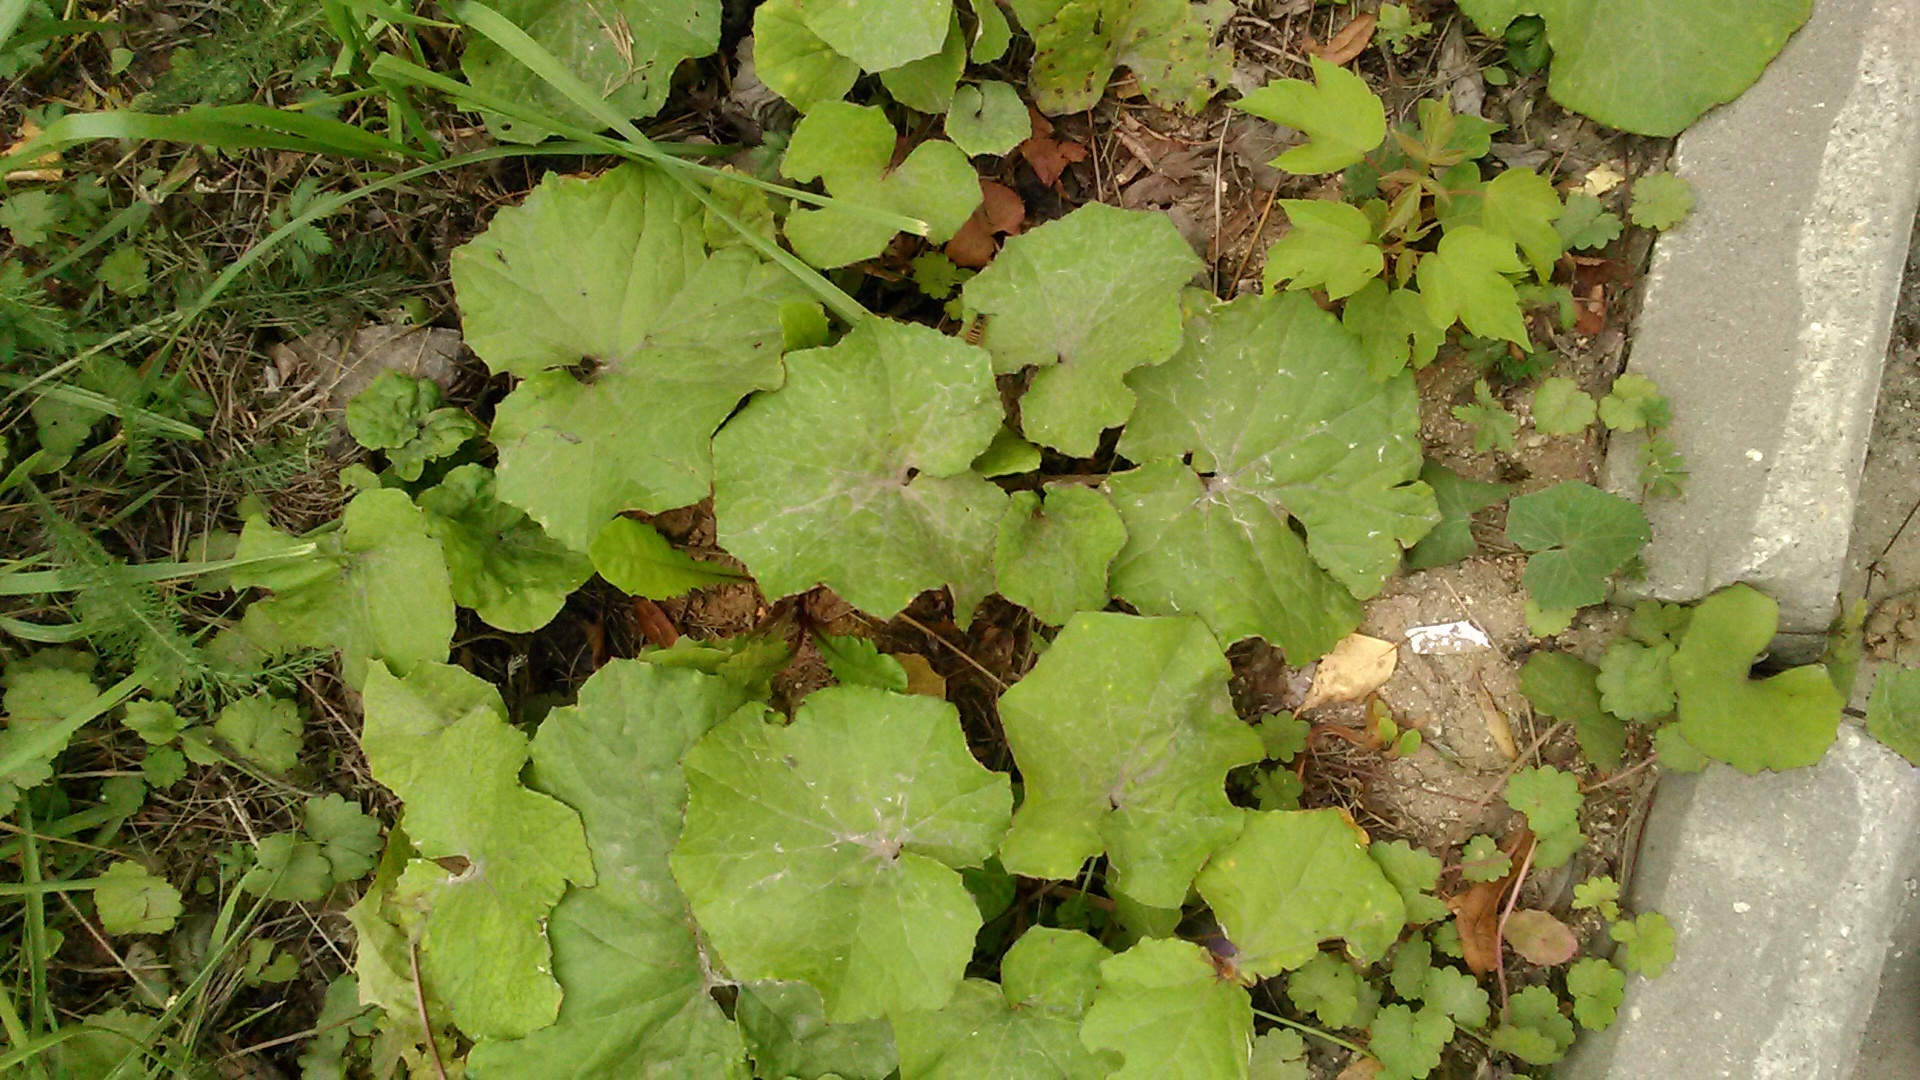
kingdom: Plantae
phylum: Tracheophyta
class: Magnoliopsida
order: Asterales
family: Asteraceae
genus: Tussilago
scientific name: Tussilago farfara
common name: Coltsfoot
